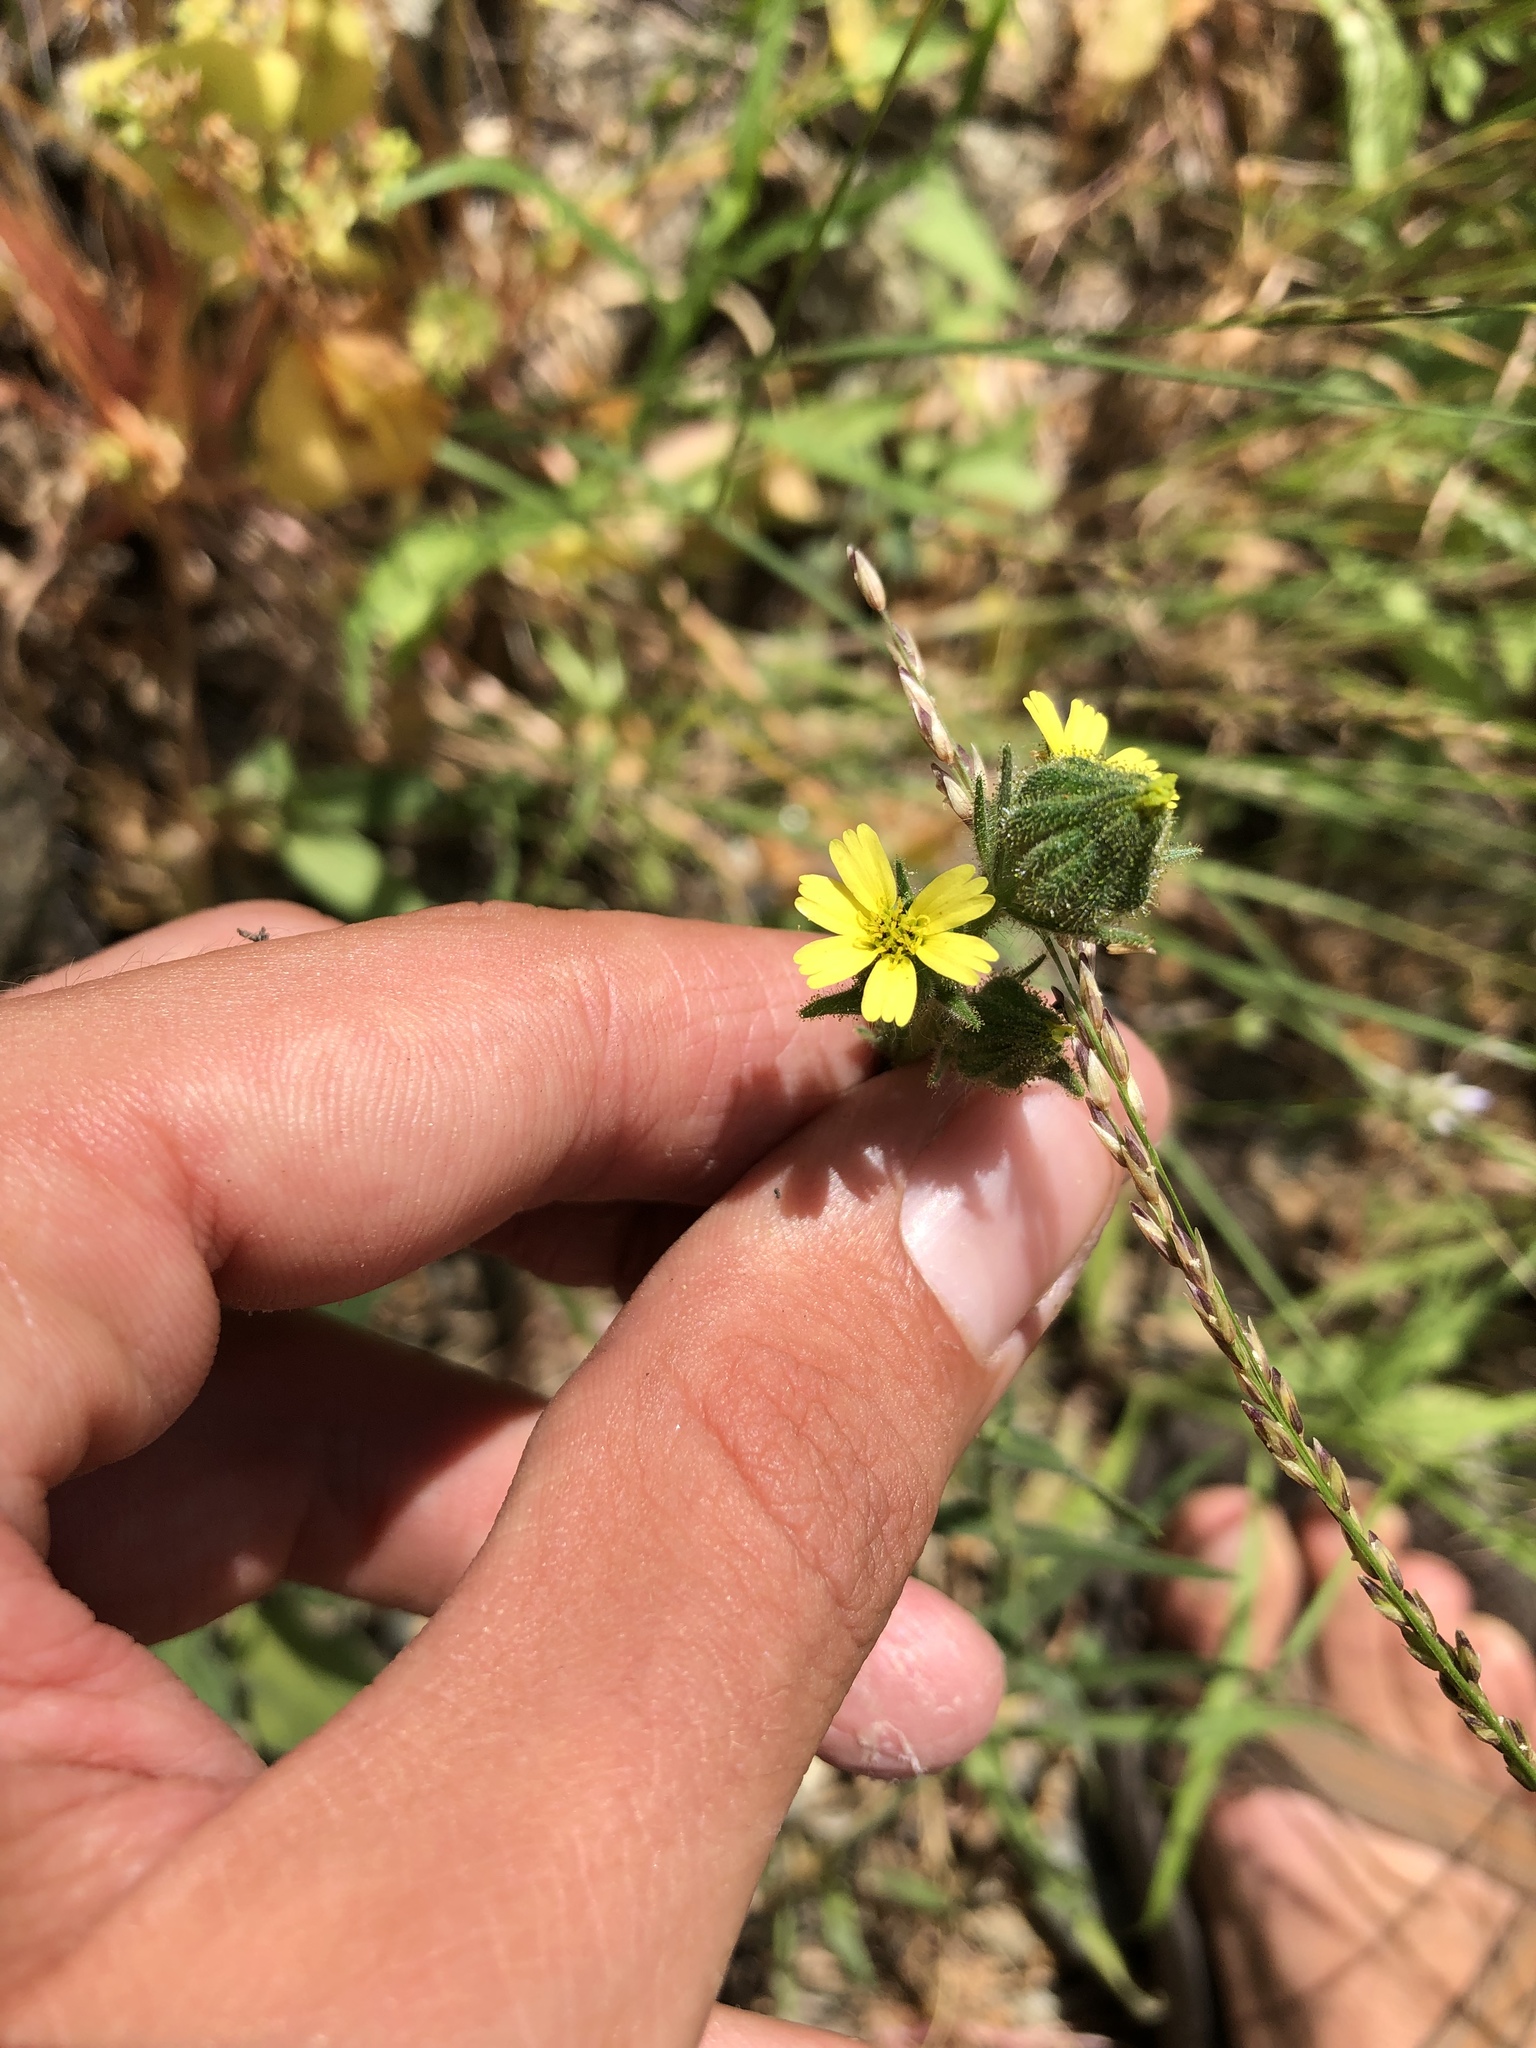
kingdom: Plantae
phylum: Tracheophyta
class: Magnoliopsida
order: Asterales
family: Asteraceae
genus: Madia
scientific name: Madia gracilis
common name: Grassy tarweed
